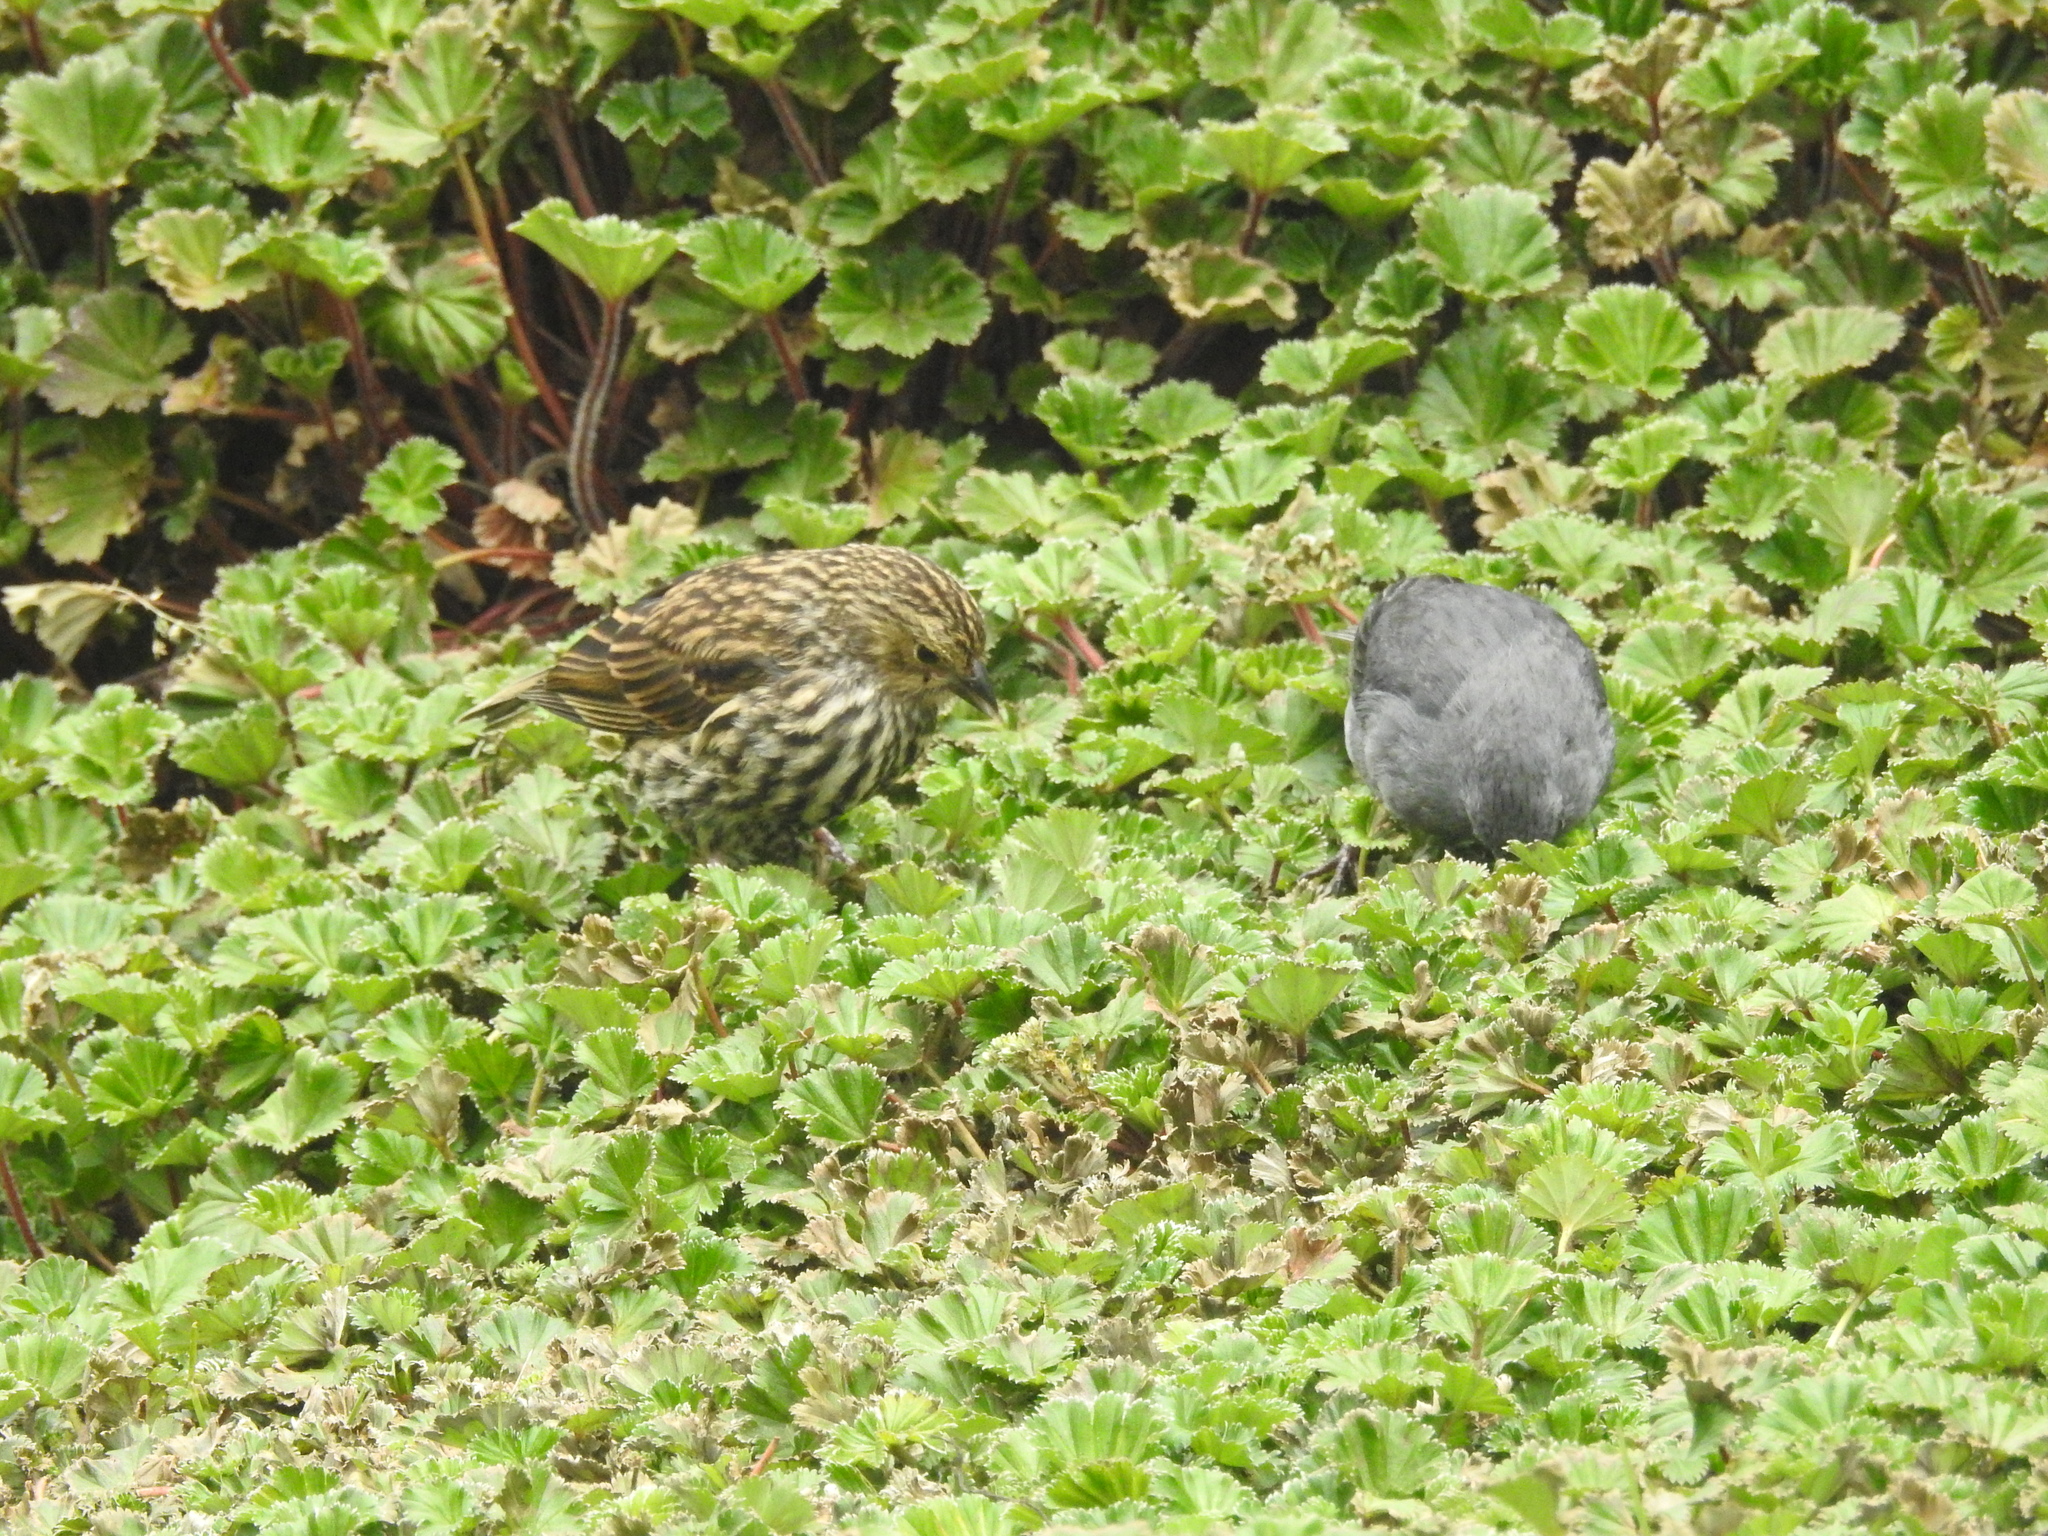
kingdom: Animalia
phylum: Chordata
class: Aves
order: Passeriformes
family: Thraupidae
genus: Geospizopsis
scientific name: Geospizopsis unicolor
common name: Plumbeous sierra-finch
